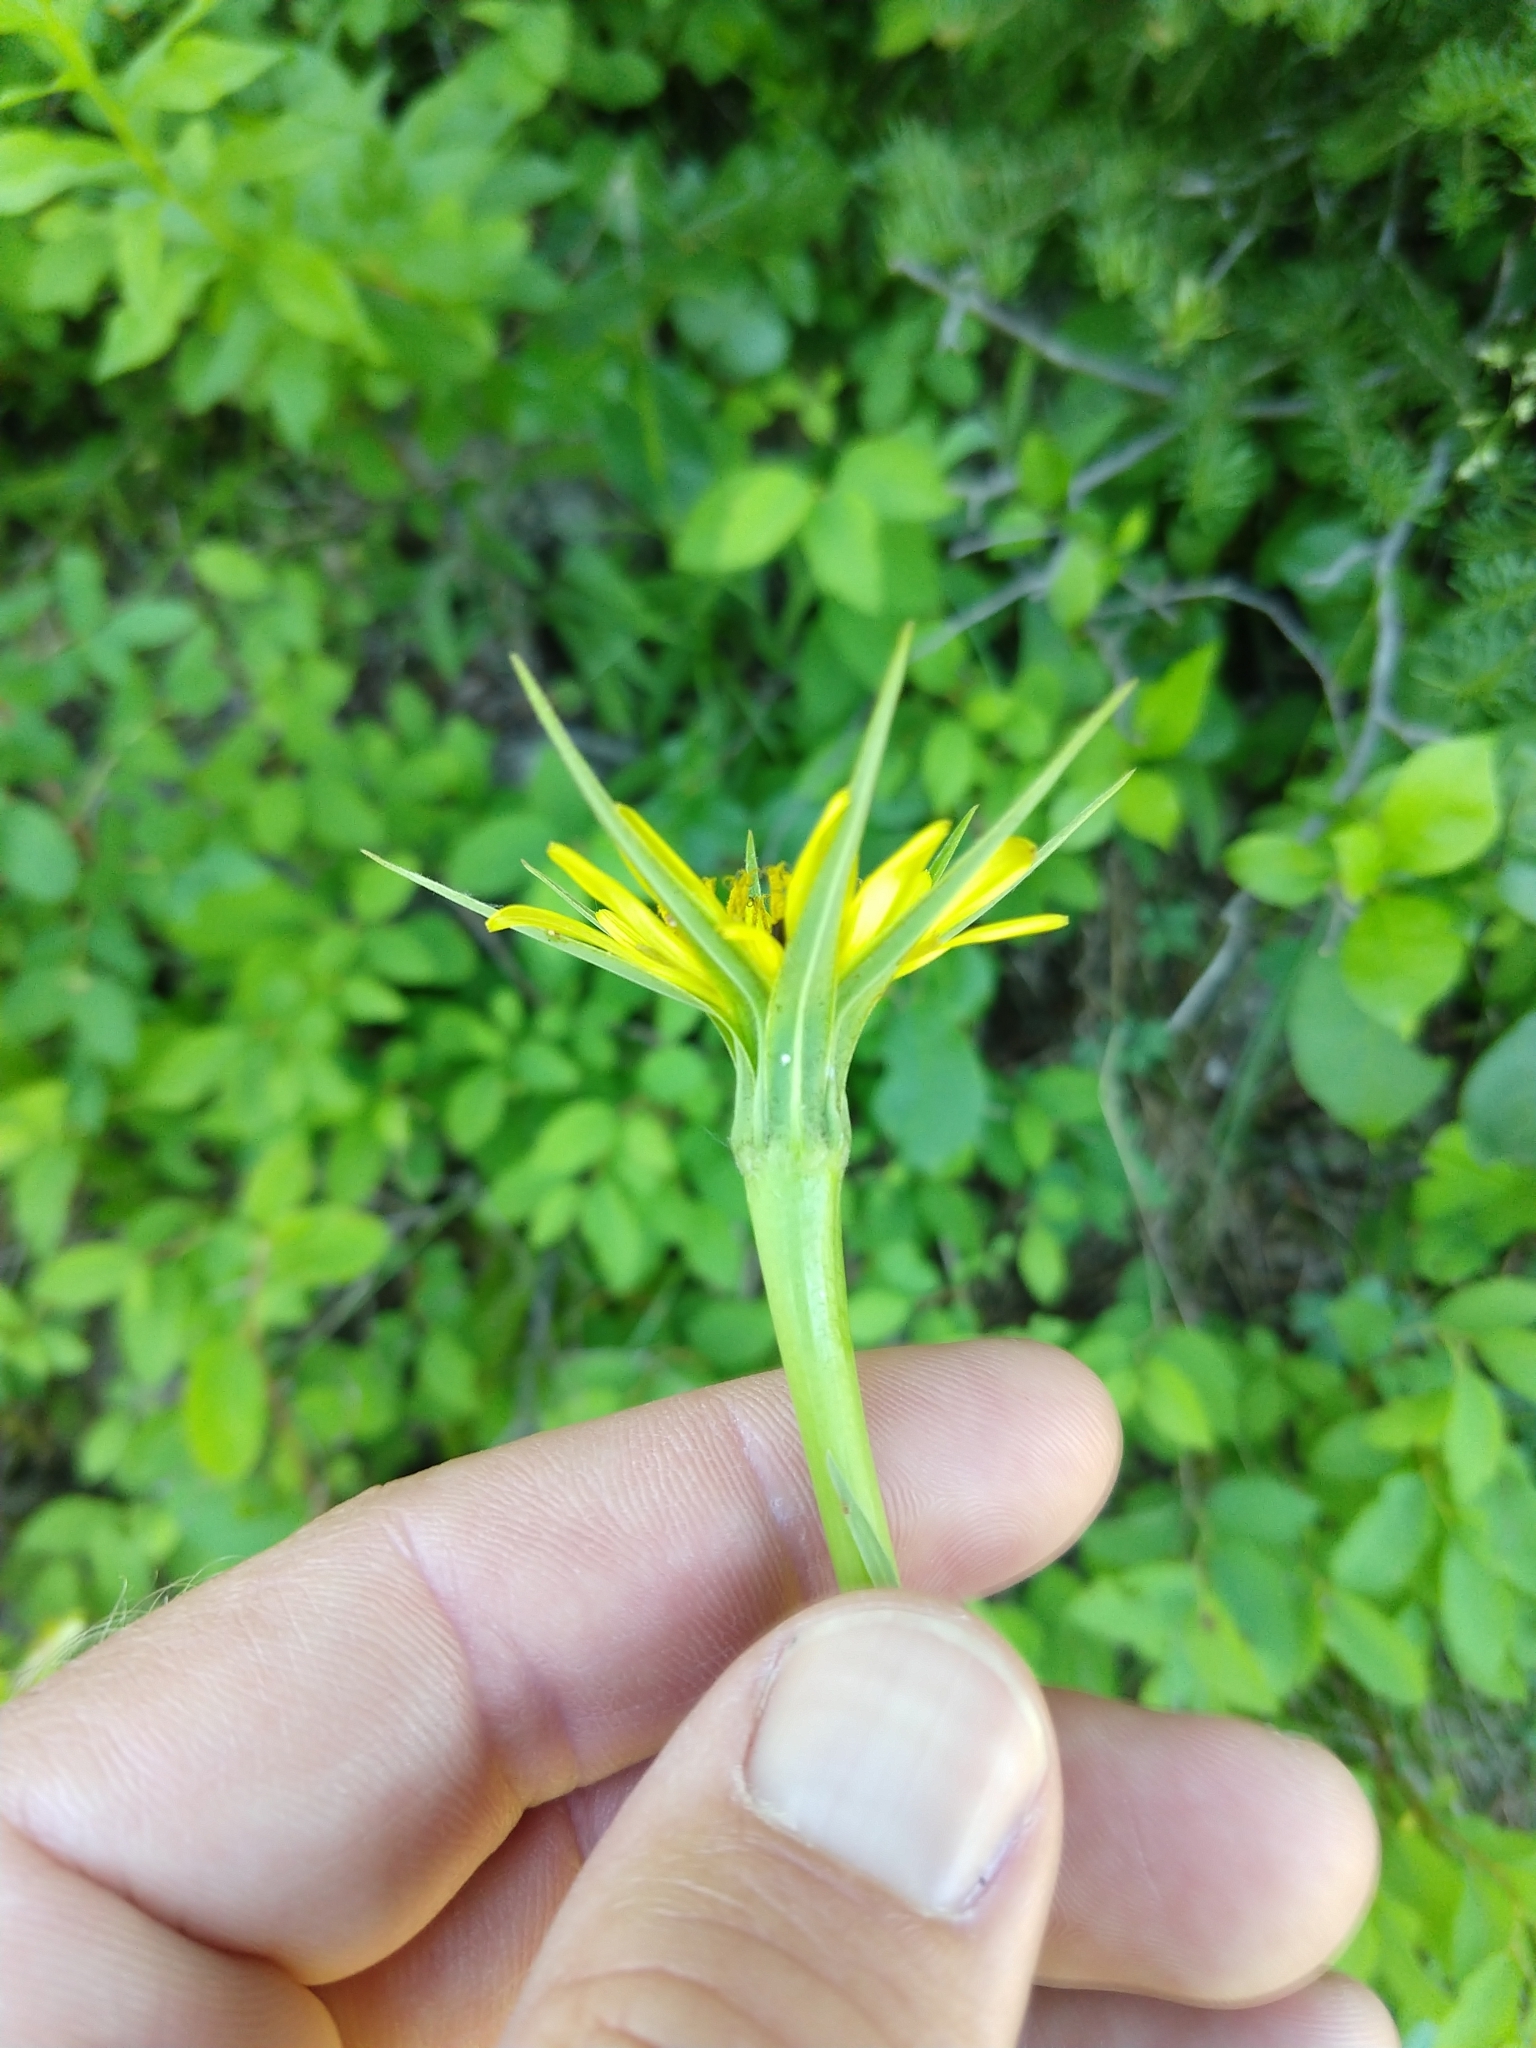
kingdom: Plantae
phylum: Tracheophyta
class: Magnoliopsida
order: Asterales
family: Asteraceae
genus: Tragopogon
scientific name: Tragopogon dubius
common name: Yellow salsify
